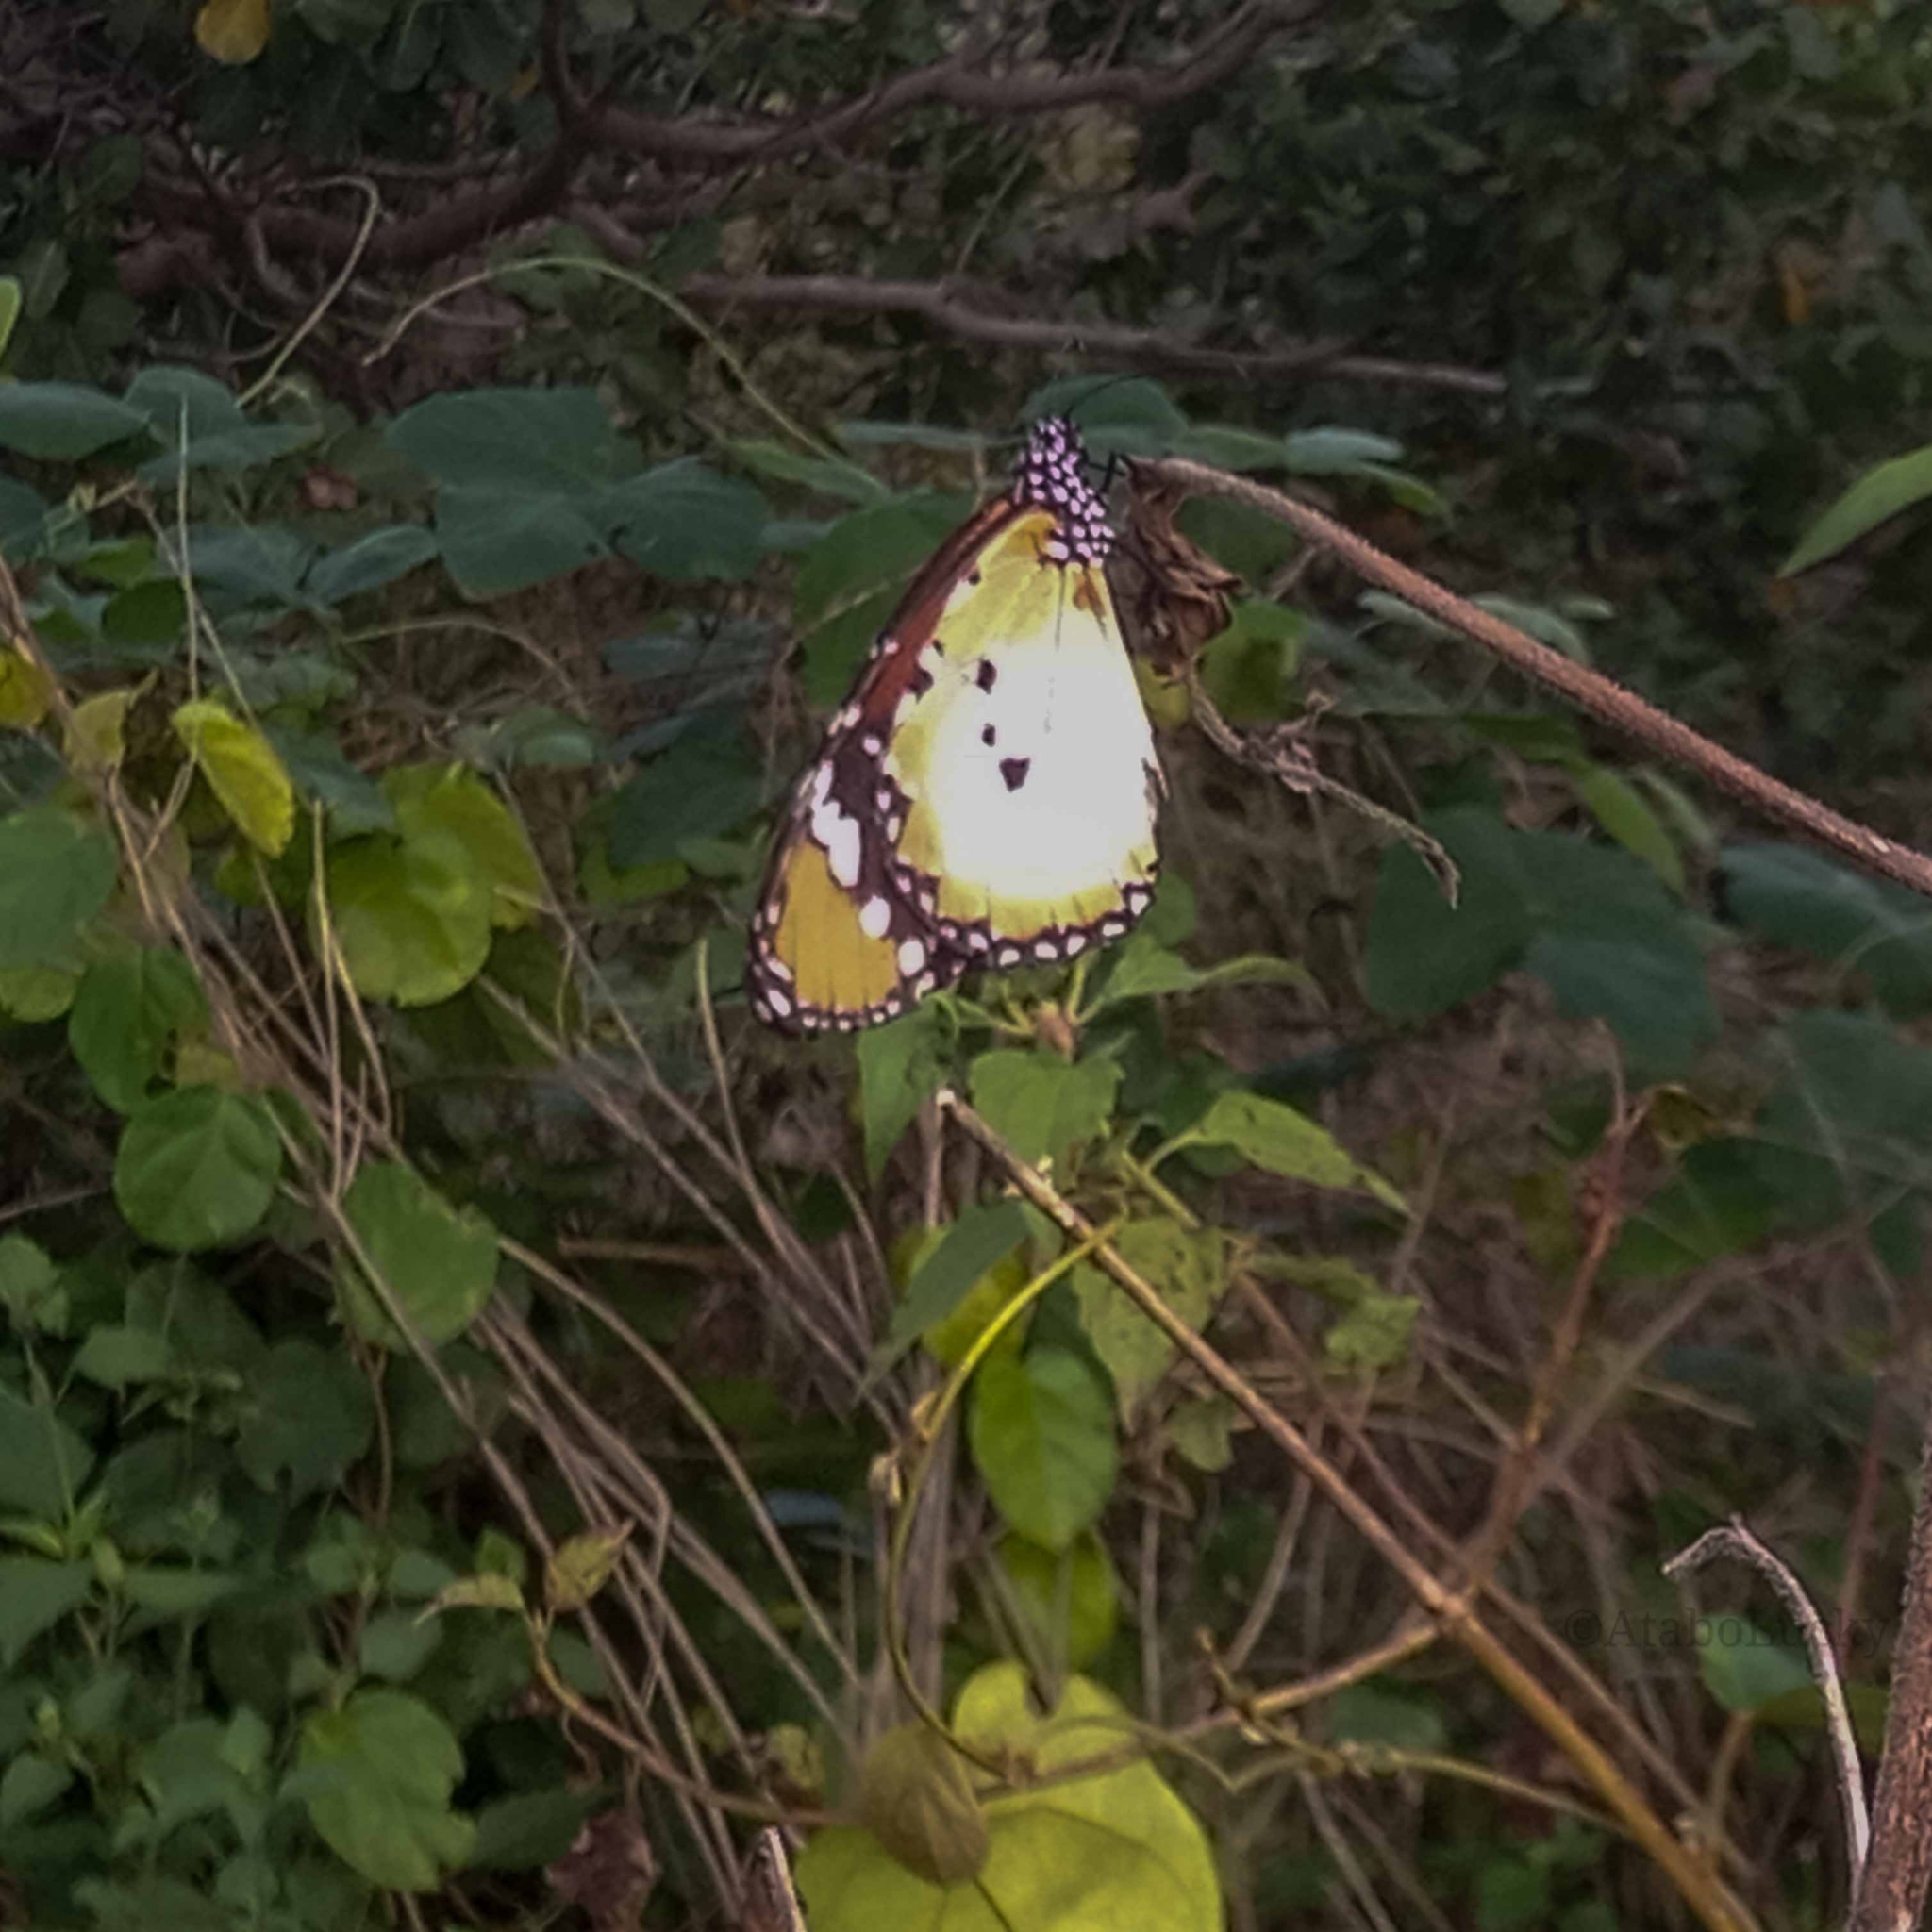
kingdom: Animalia
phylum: Arthropoda
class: Insecta
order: Lepidoptera
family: Nymphalidae
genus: Danaus
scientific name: Danaus chrysippus
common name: Plain tiger
